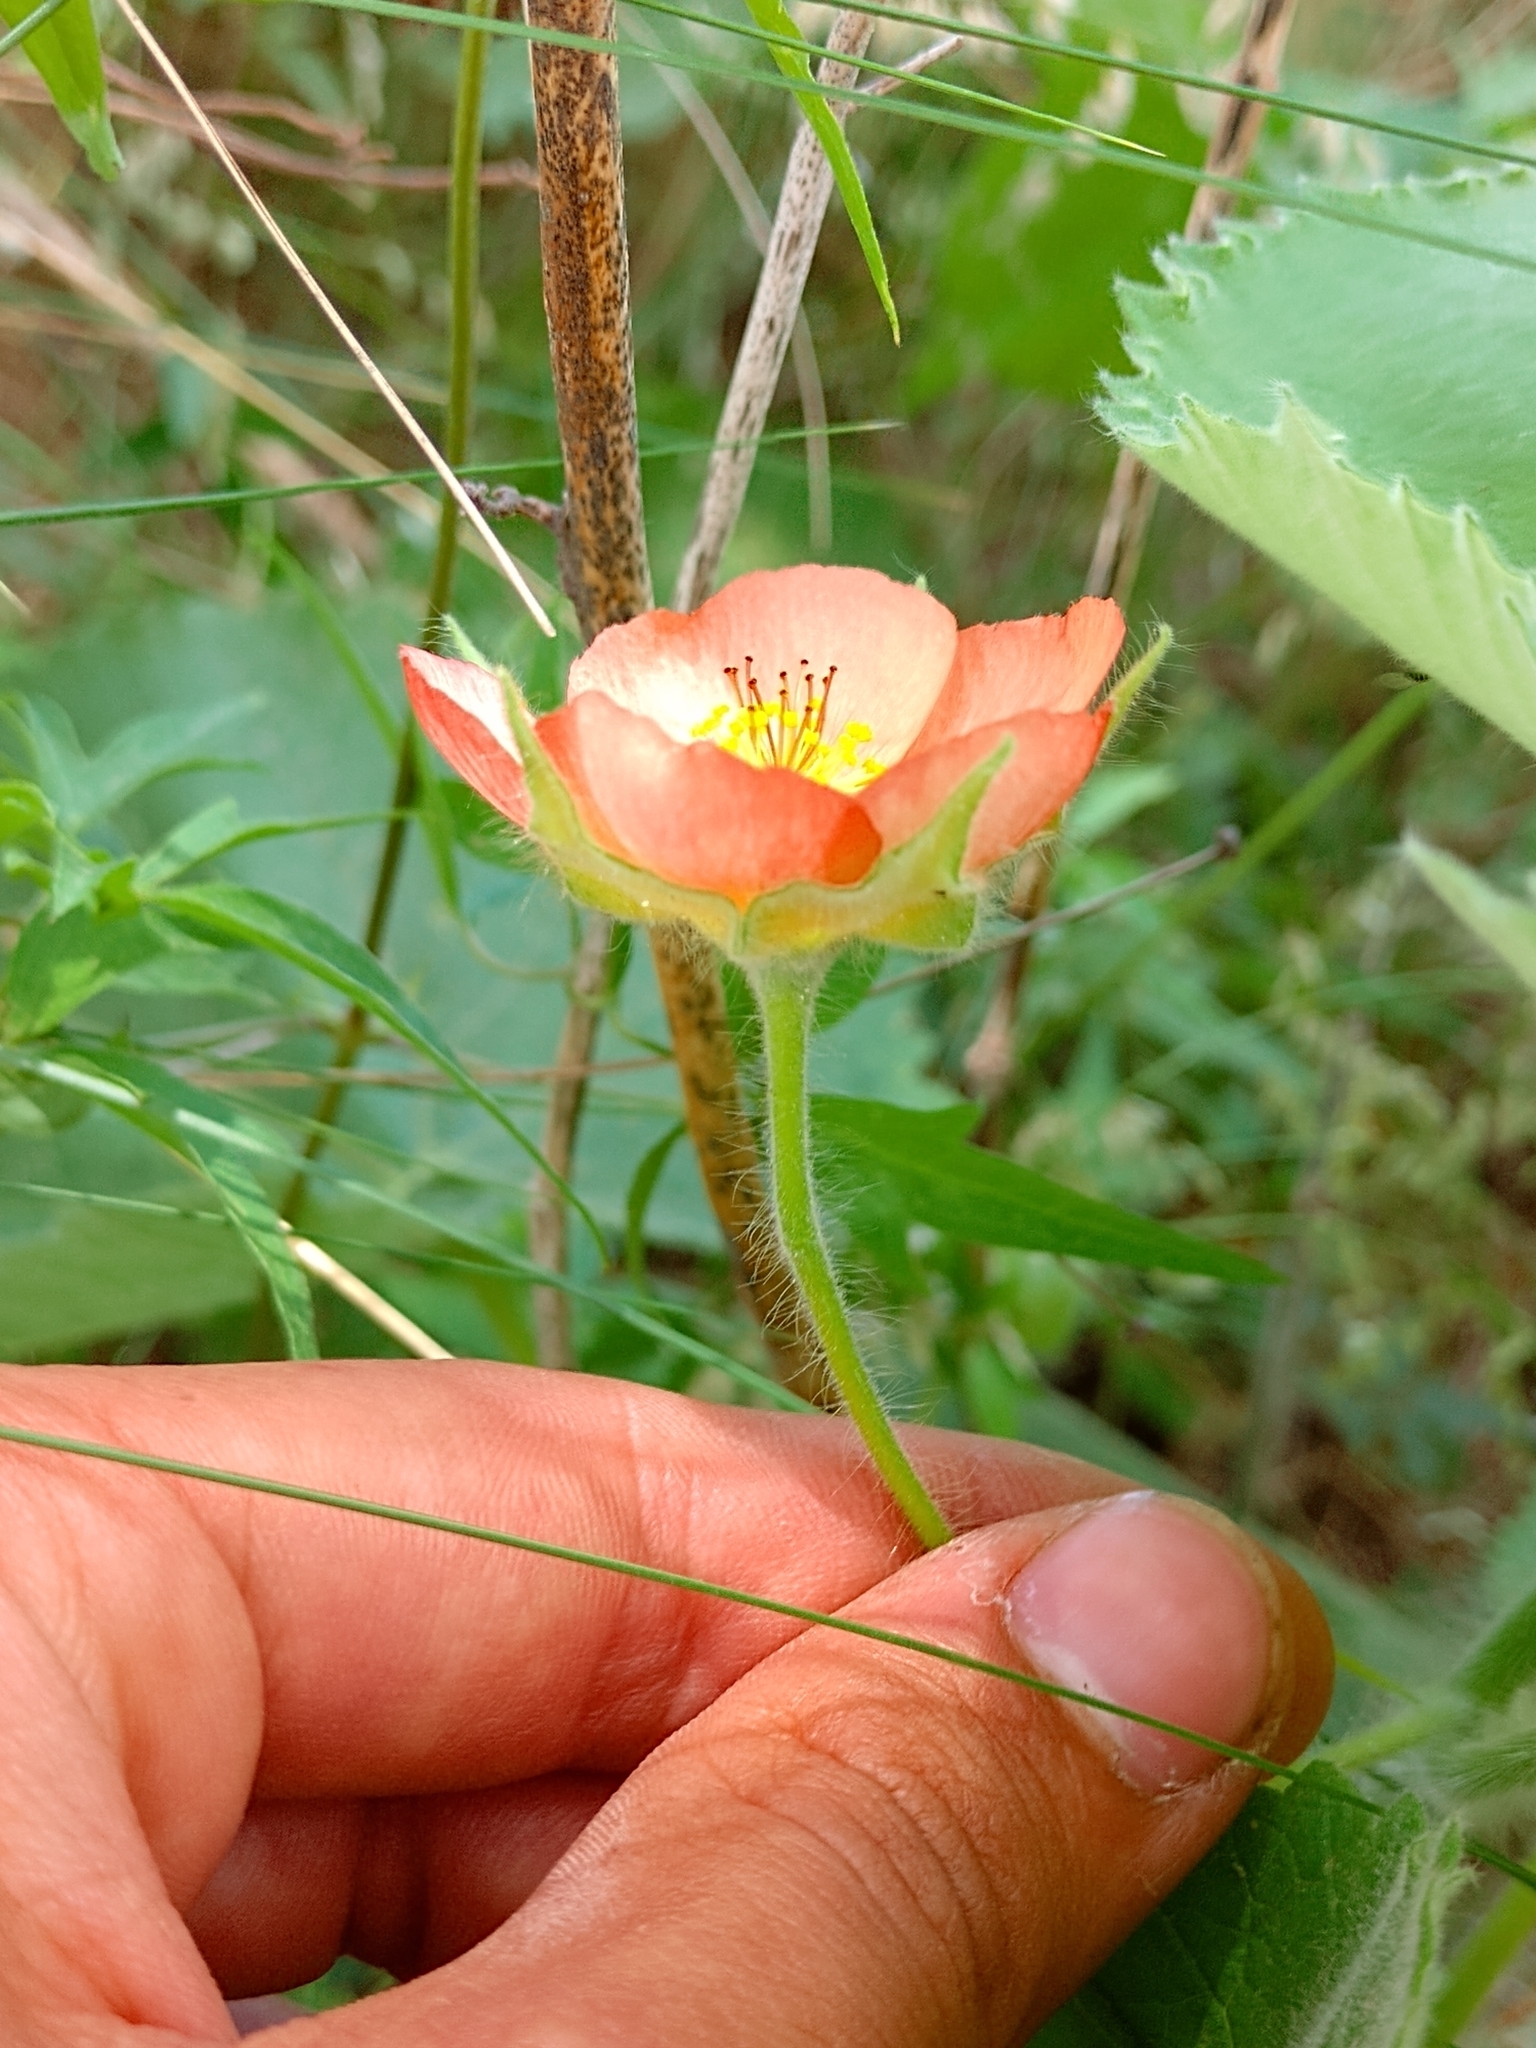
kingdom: Plantae
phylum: Tracheophyta
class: Magnoliopsida
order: Malvales
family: Malvaceae
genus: Callianthe
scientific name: Callianthe pauciflora
